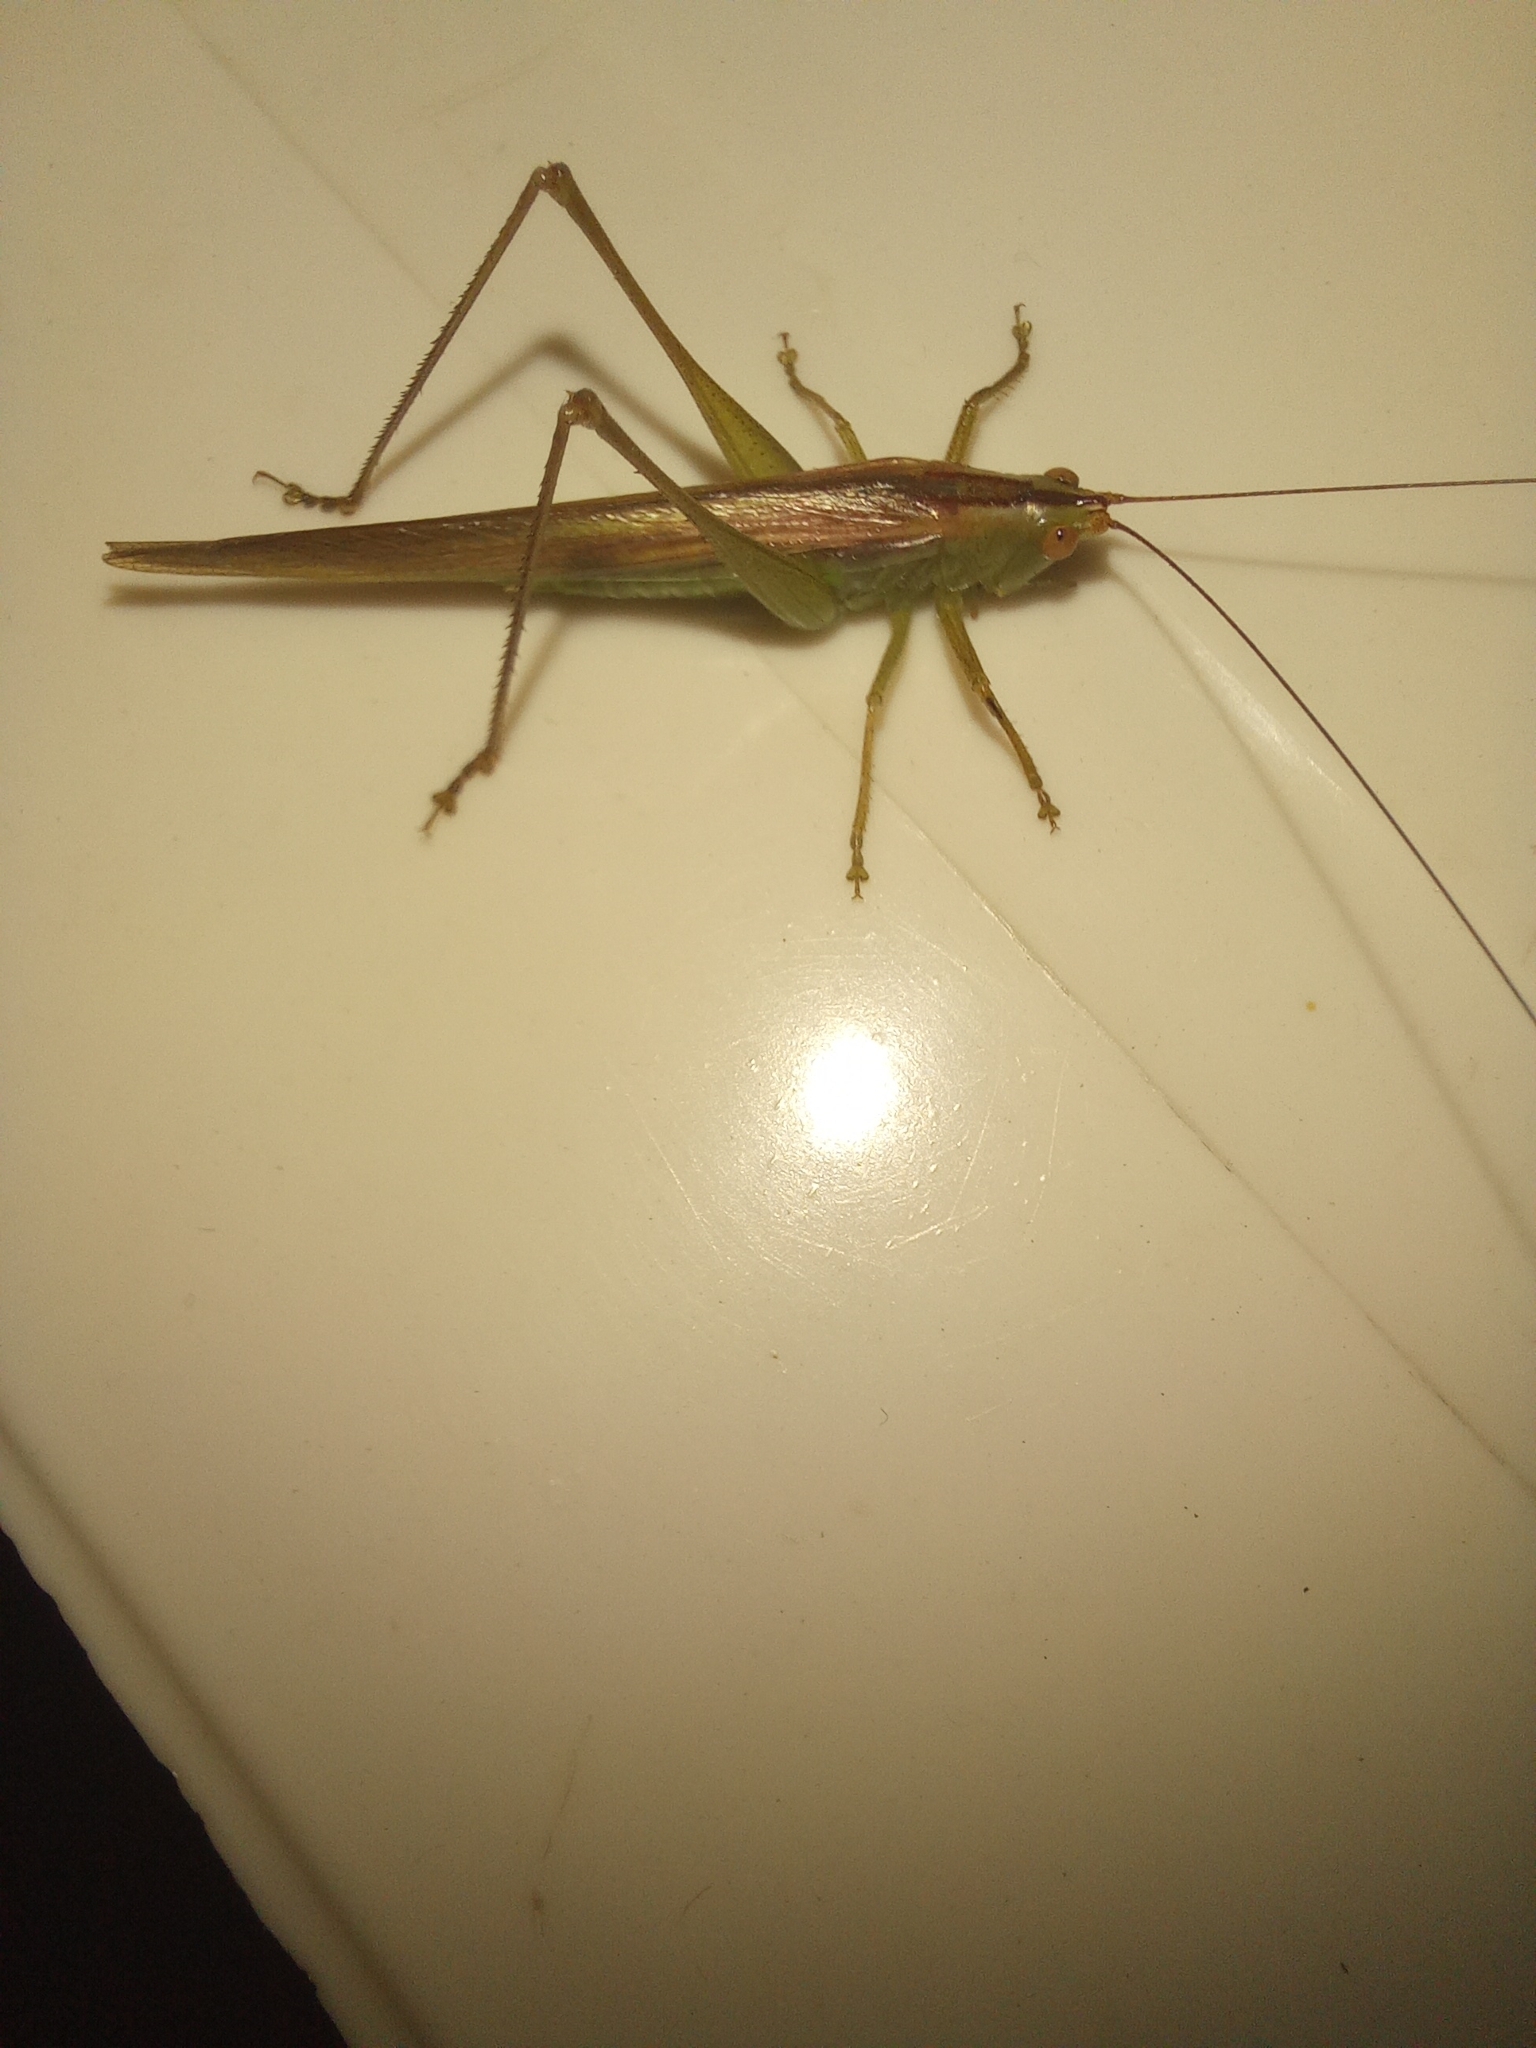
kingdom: Animalia
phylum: Arthropoda
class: Insecta
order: Orthoptera
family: Tettigoniidae
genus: Conocephalus
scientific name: Conocephalus longipes
